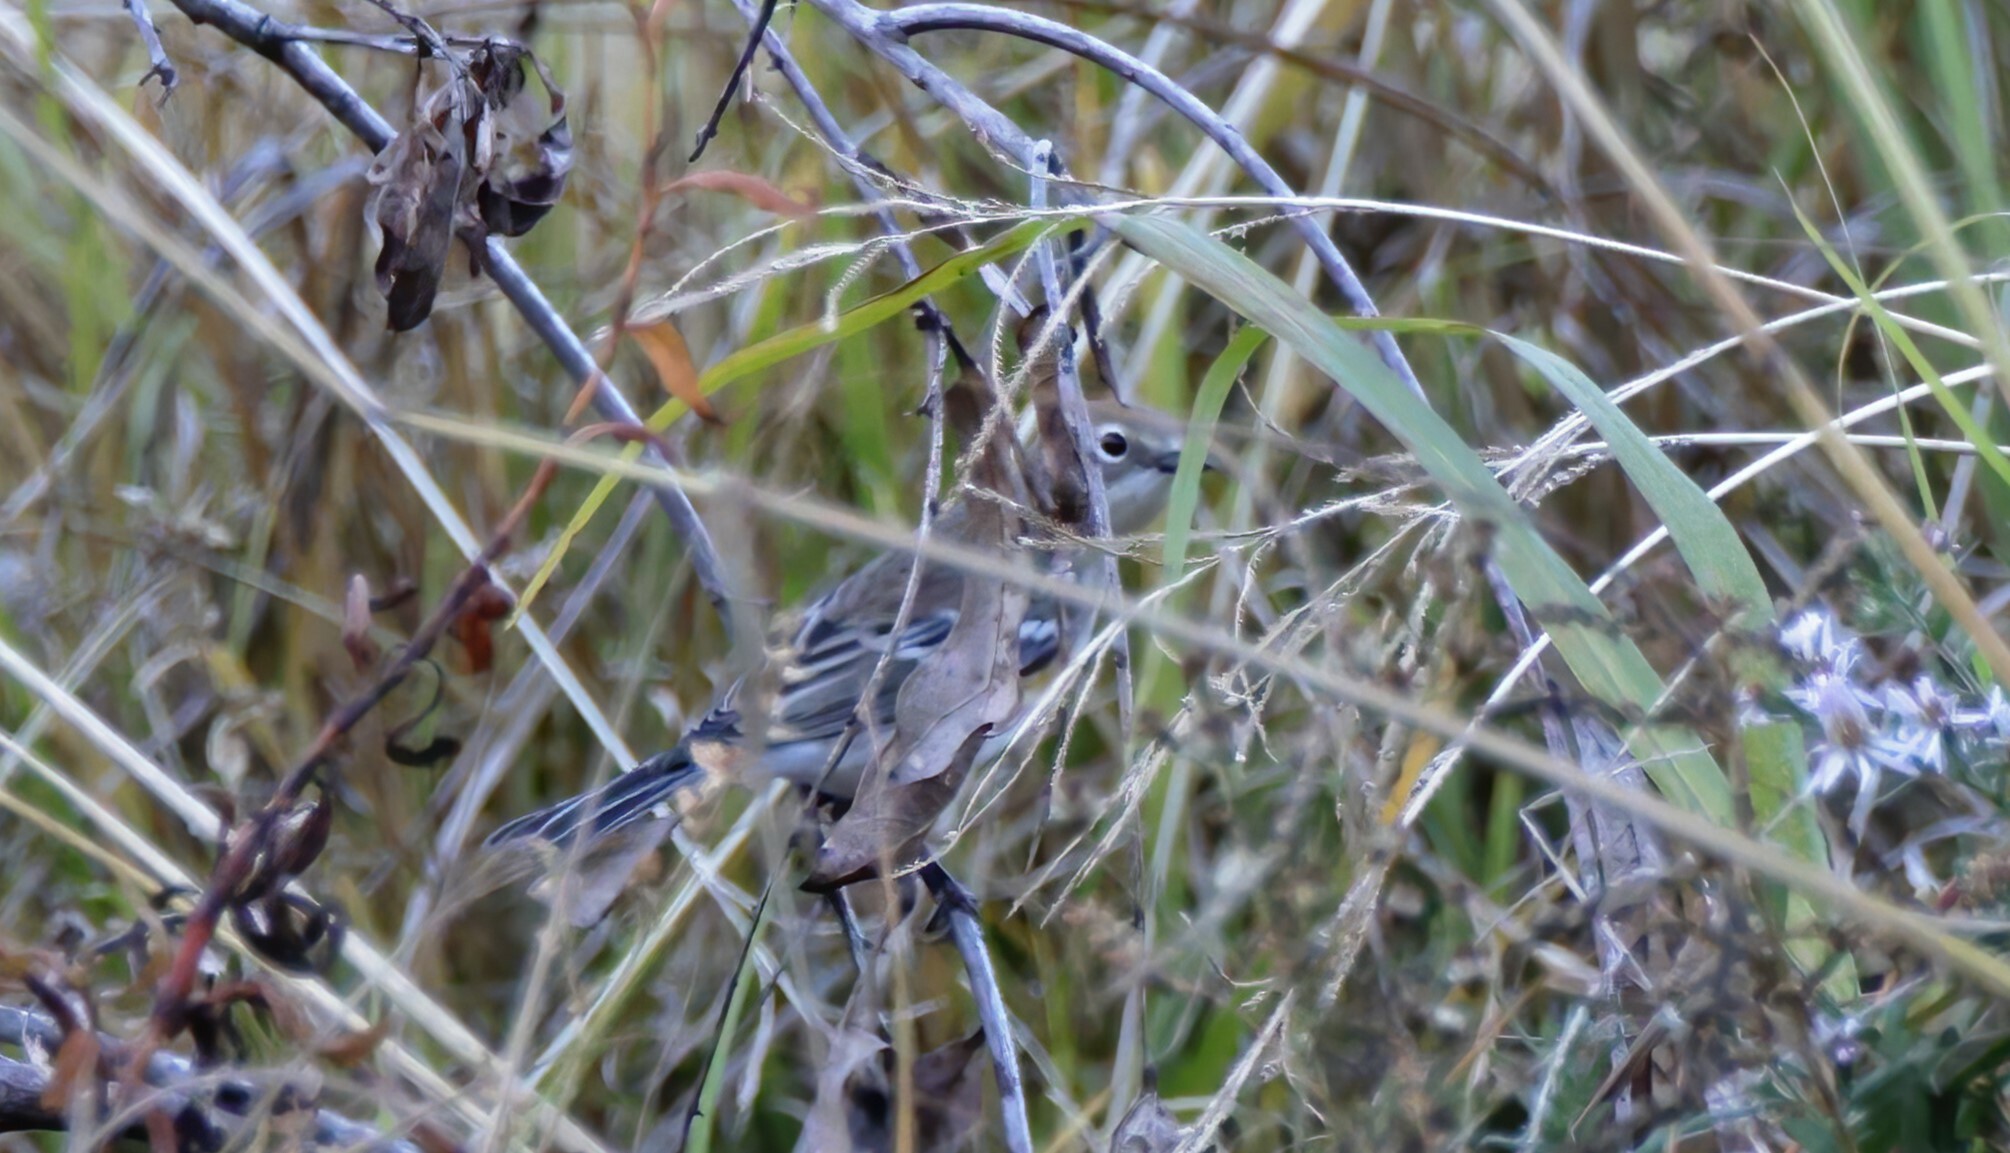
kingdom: Animalia
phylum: Chordata
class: Aves
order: Passeriformes
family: Parulidae
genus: Setophaga
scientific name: Setophaga coronata
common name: Myrtle warbler
